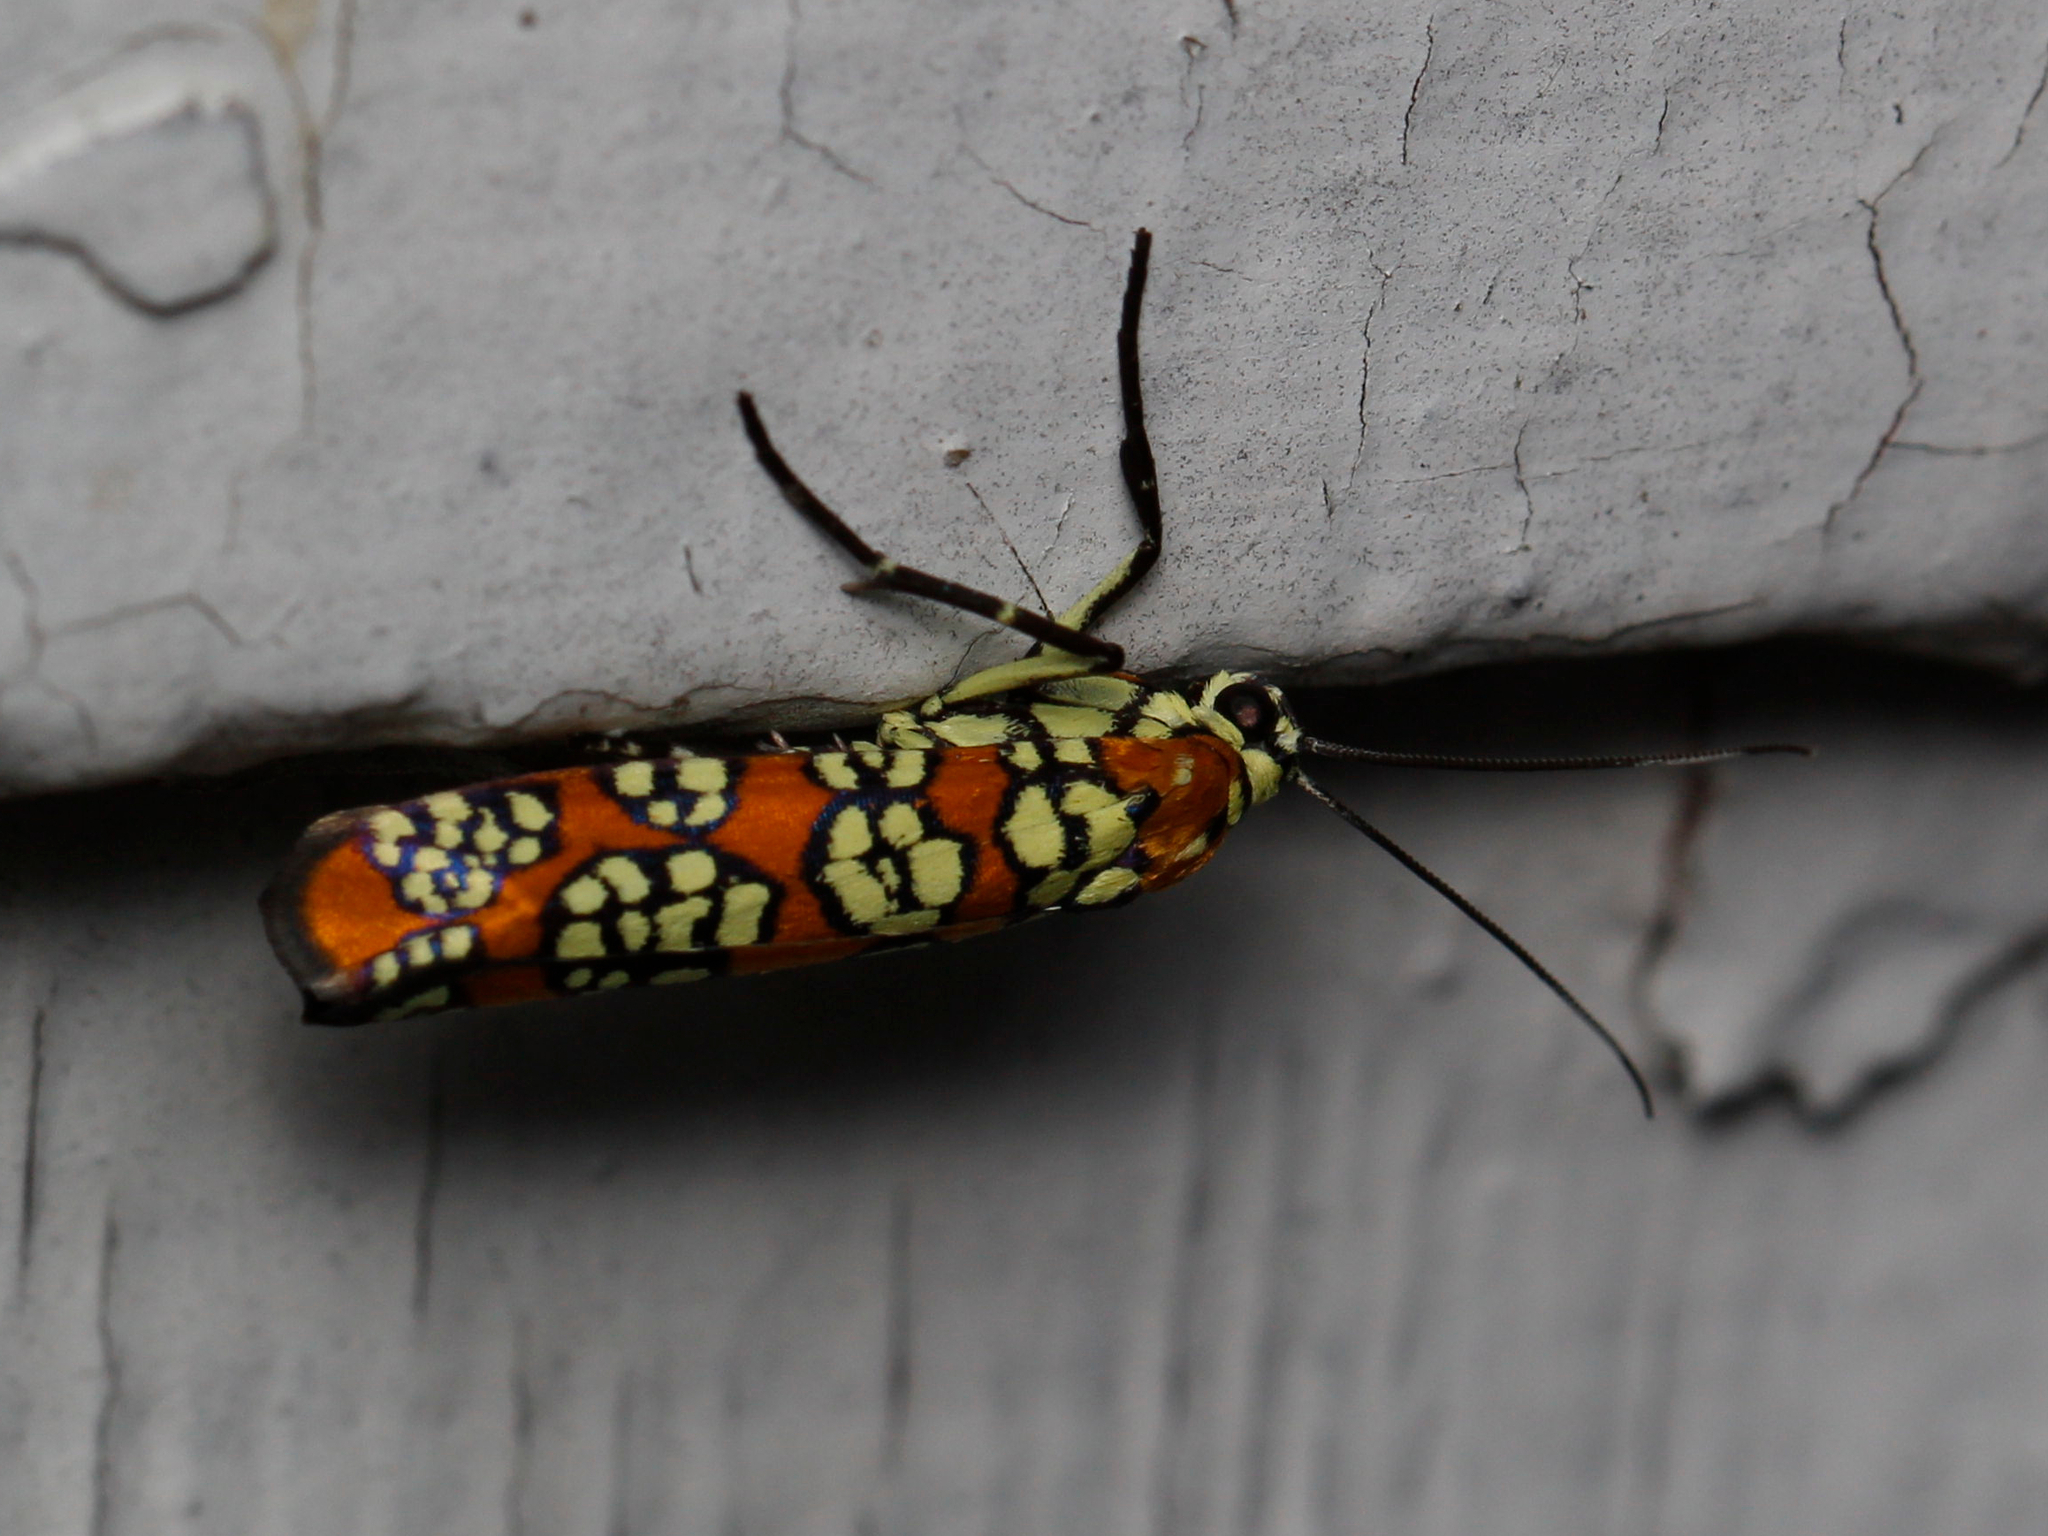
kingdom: Animalia
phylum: Arthropoda
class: Insecta
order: Lepidoptera
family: Attevidae
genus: Atteva
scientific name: Atteva punctella
